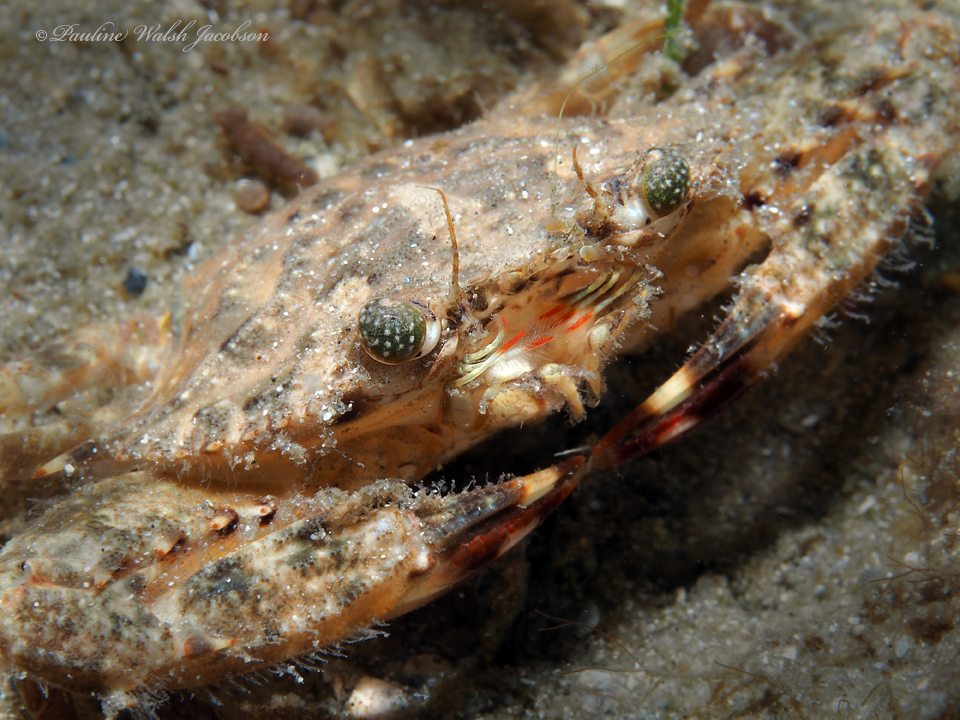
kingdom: Animalia
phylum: Arthropoda
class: Malacostraca
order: Decapoda
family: Portunidae
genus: Achelous
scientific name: Achelous spinimanus
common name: Spiny-handed portunus
